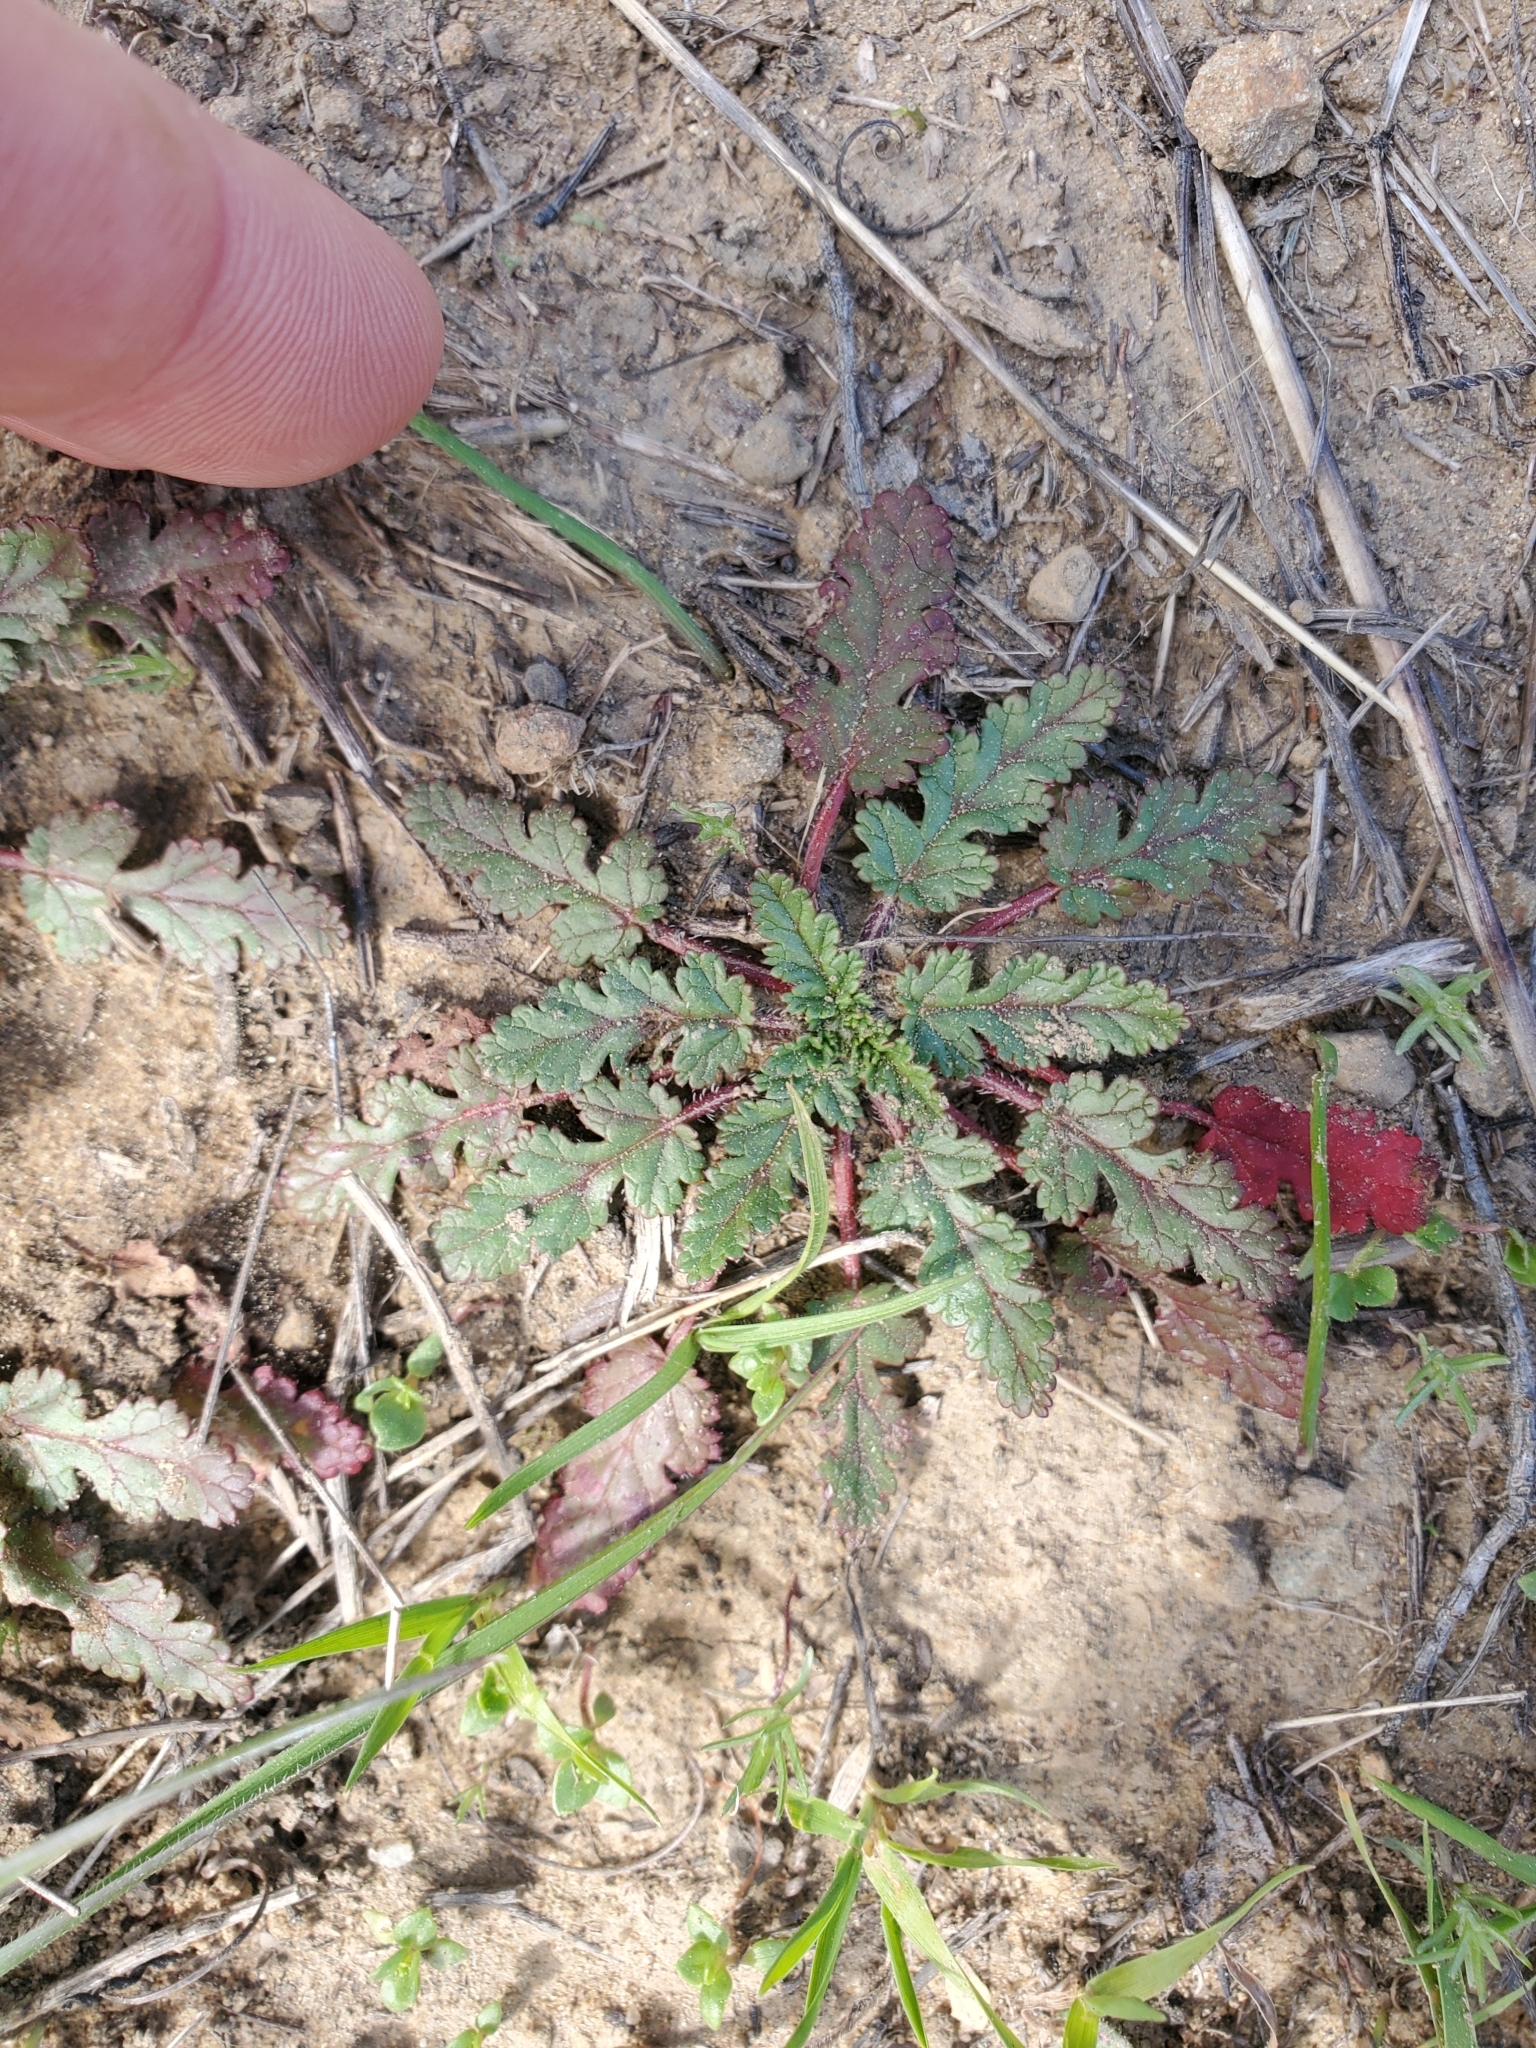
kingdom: Plantae
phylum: Tracheophyta
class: Magnoliopsida
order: Geraniales
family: Geraniaceae
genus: Erodium
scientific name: Erodium
